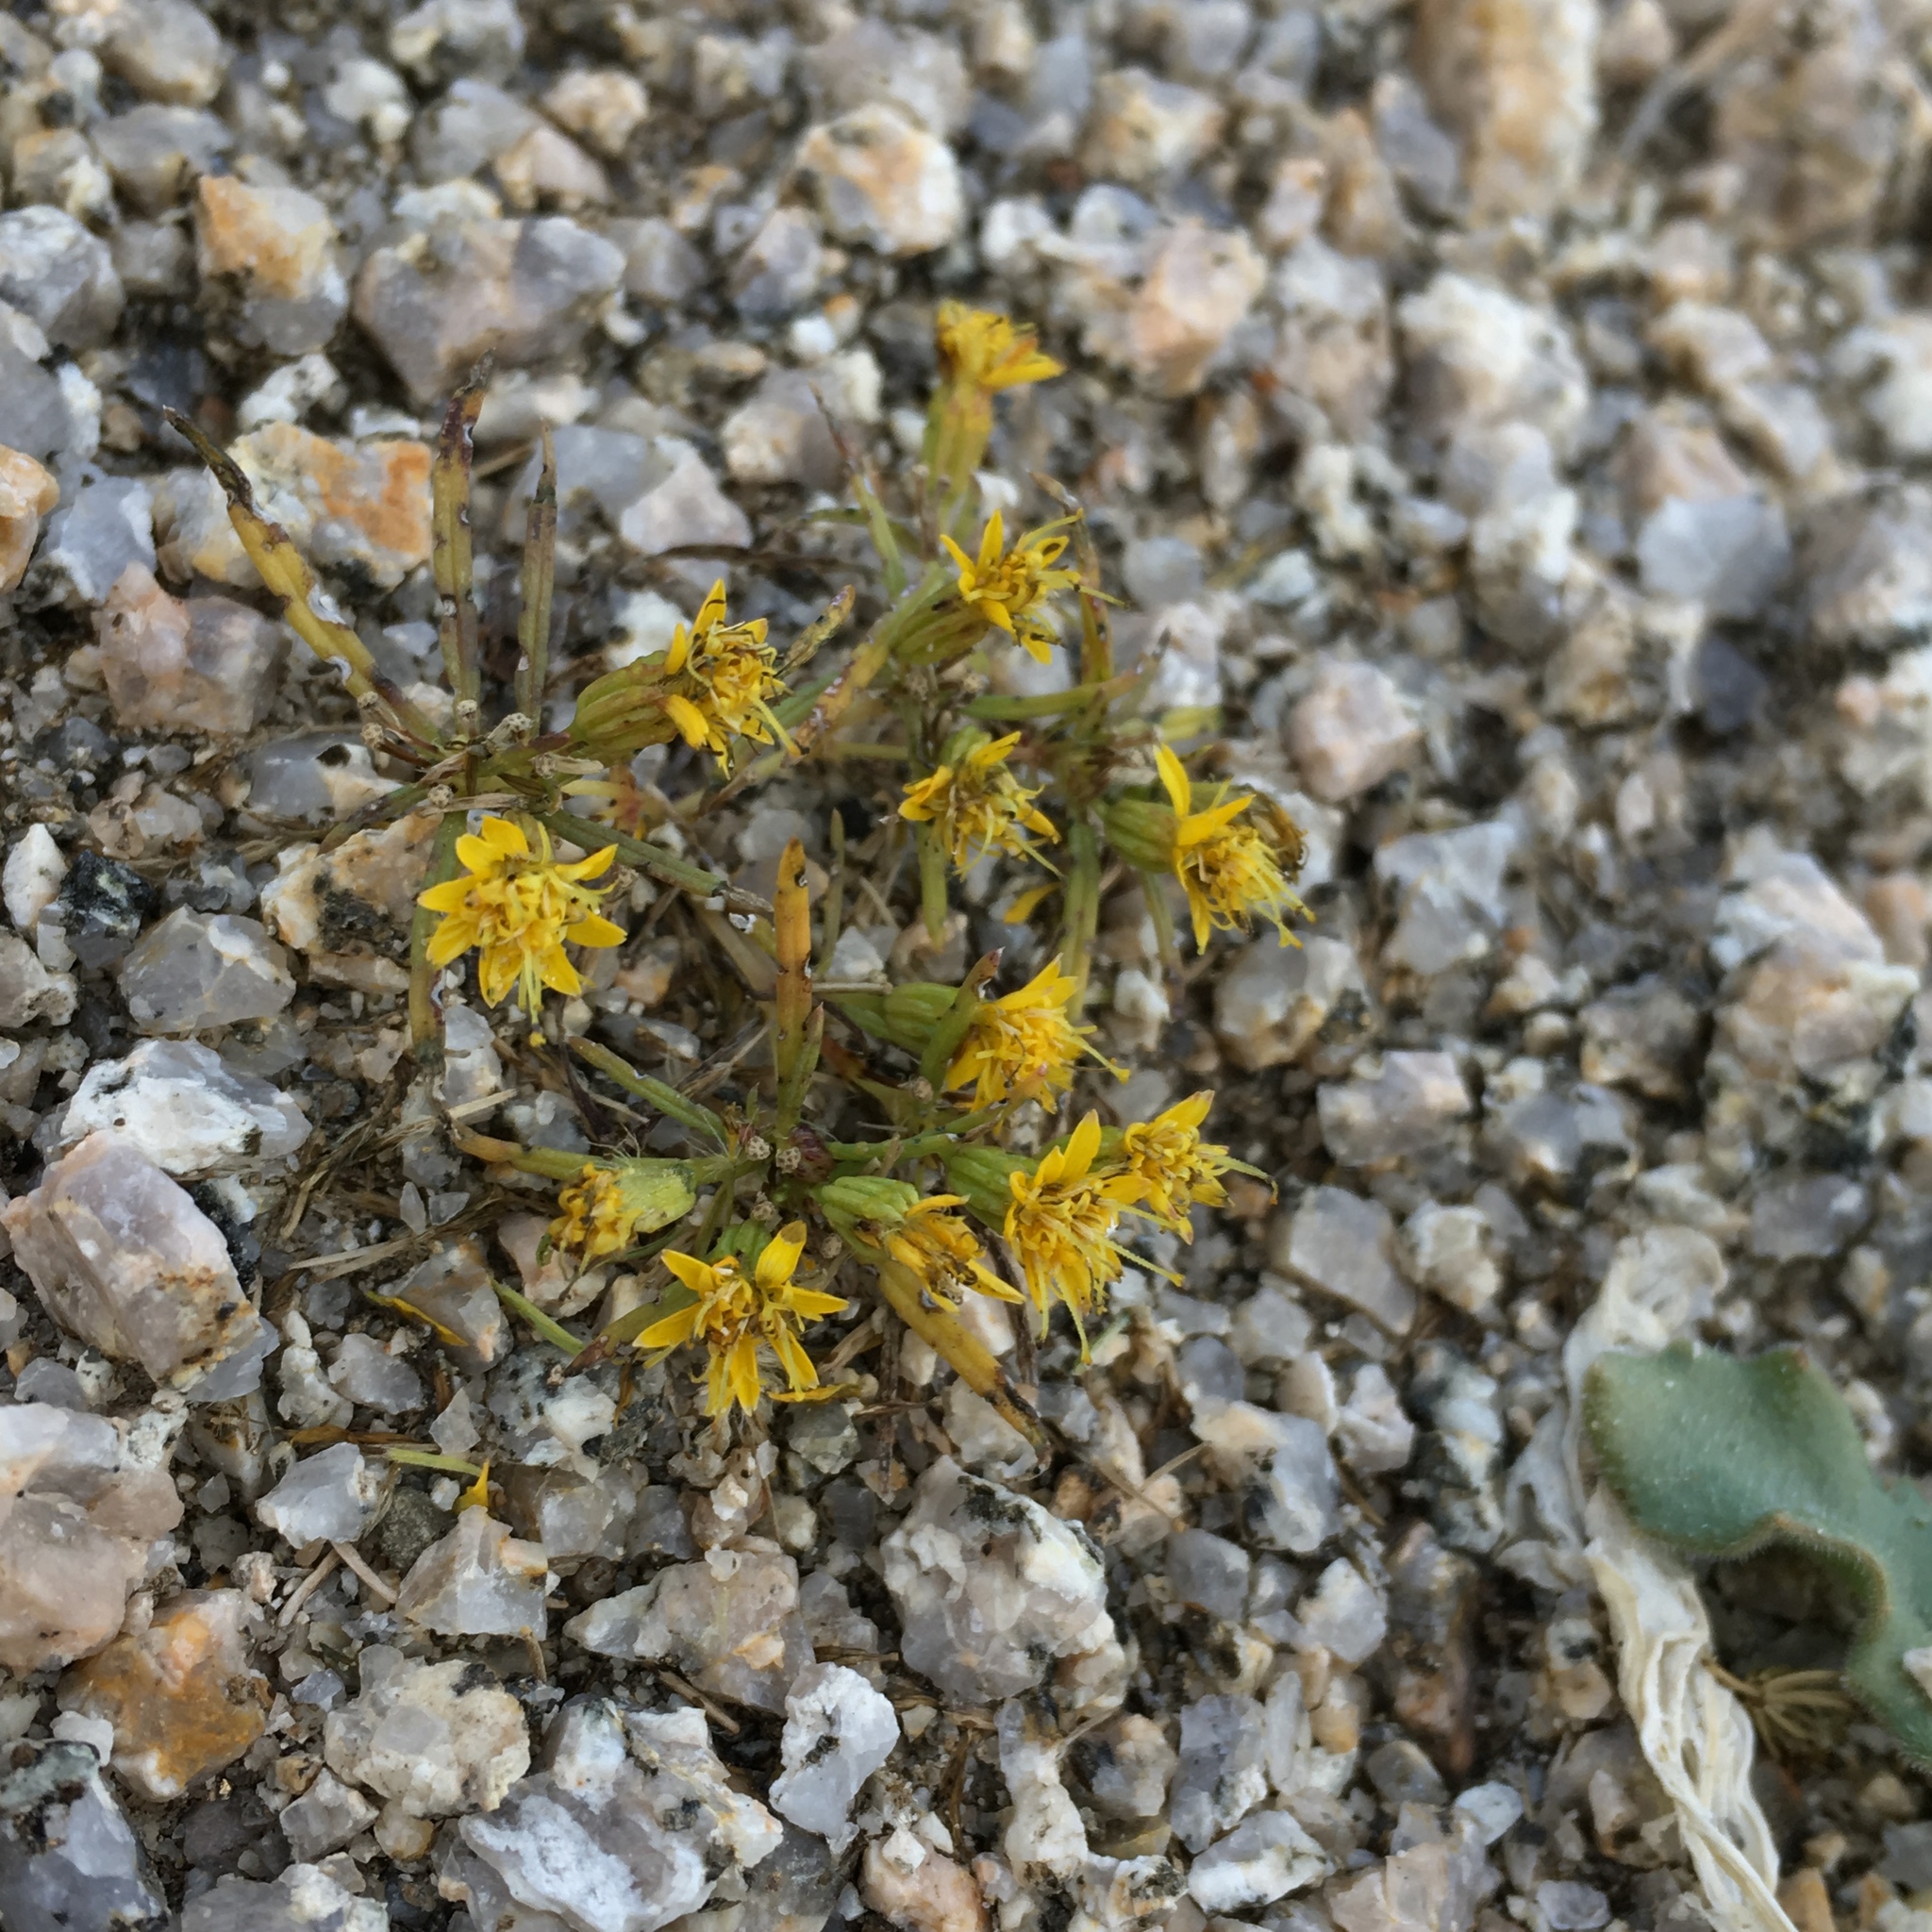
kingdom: Plantae
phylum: Tracheophyta
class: Magnoliopsida
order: Asterales
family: Asteraceae
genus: Pectis
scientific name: Pectis papposa
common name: Many-bristle chinchweed
